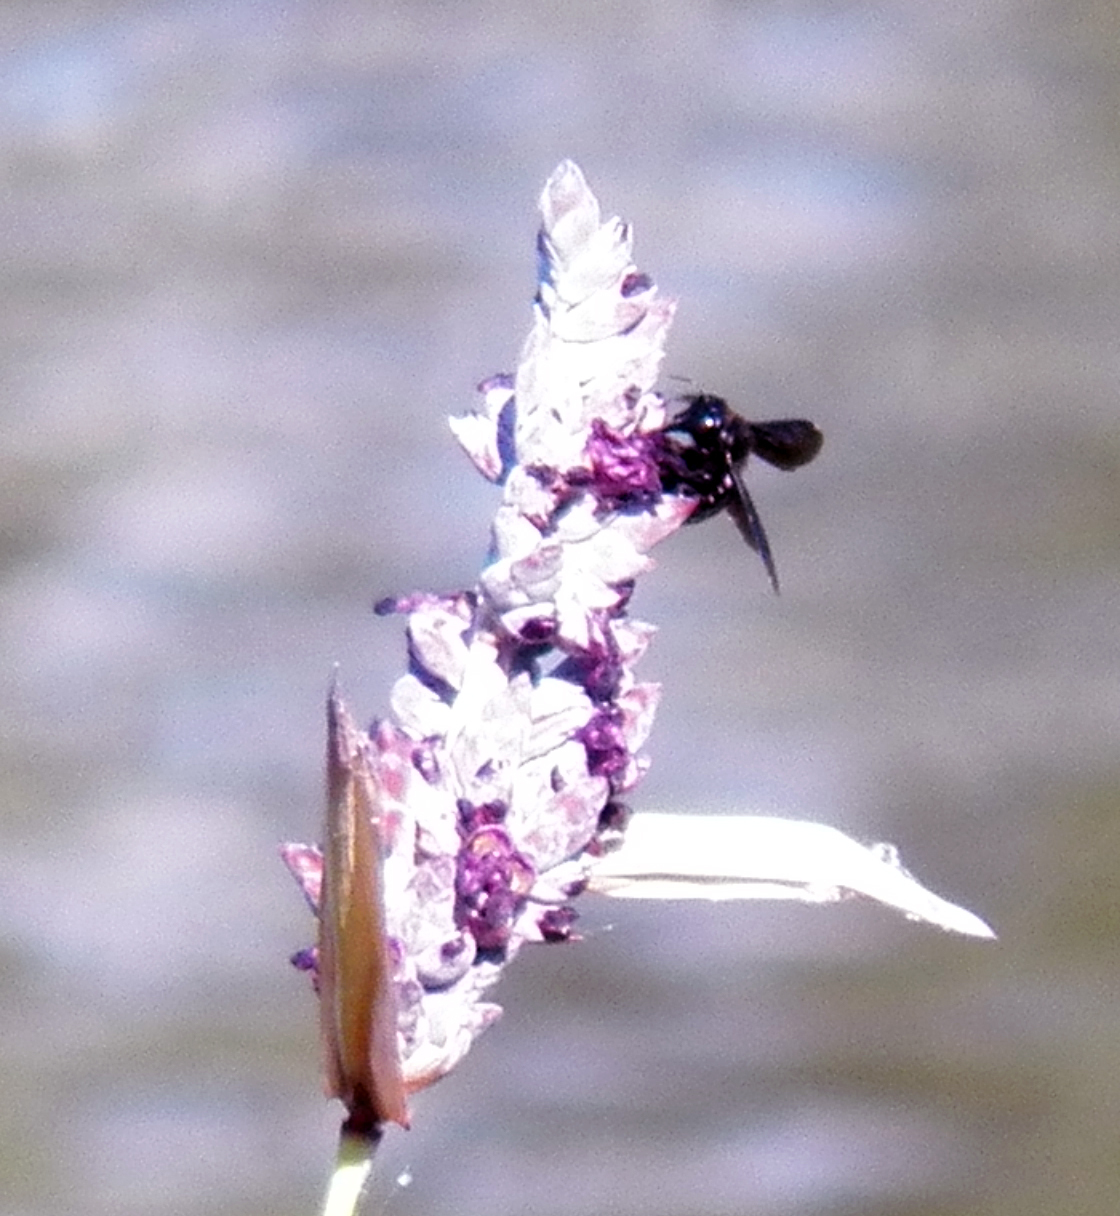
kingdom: Animalia
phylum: Arthropoda
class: Insecta
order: Hymenoptera
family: Apidae
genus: Xylocopa
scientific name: Xylocopa strandi
